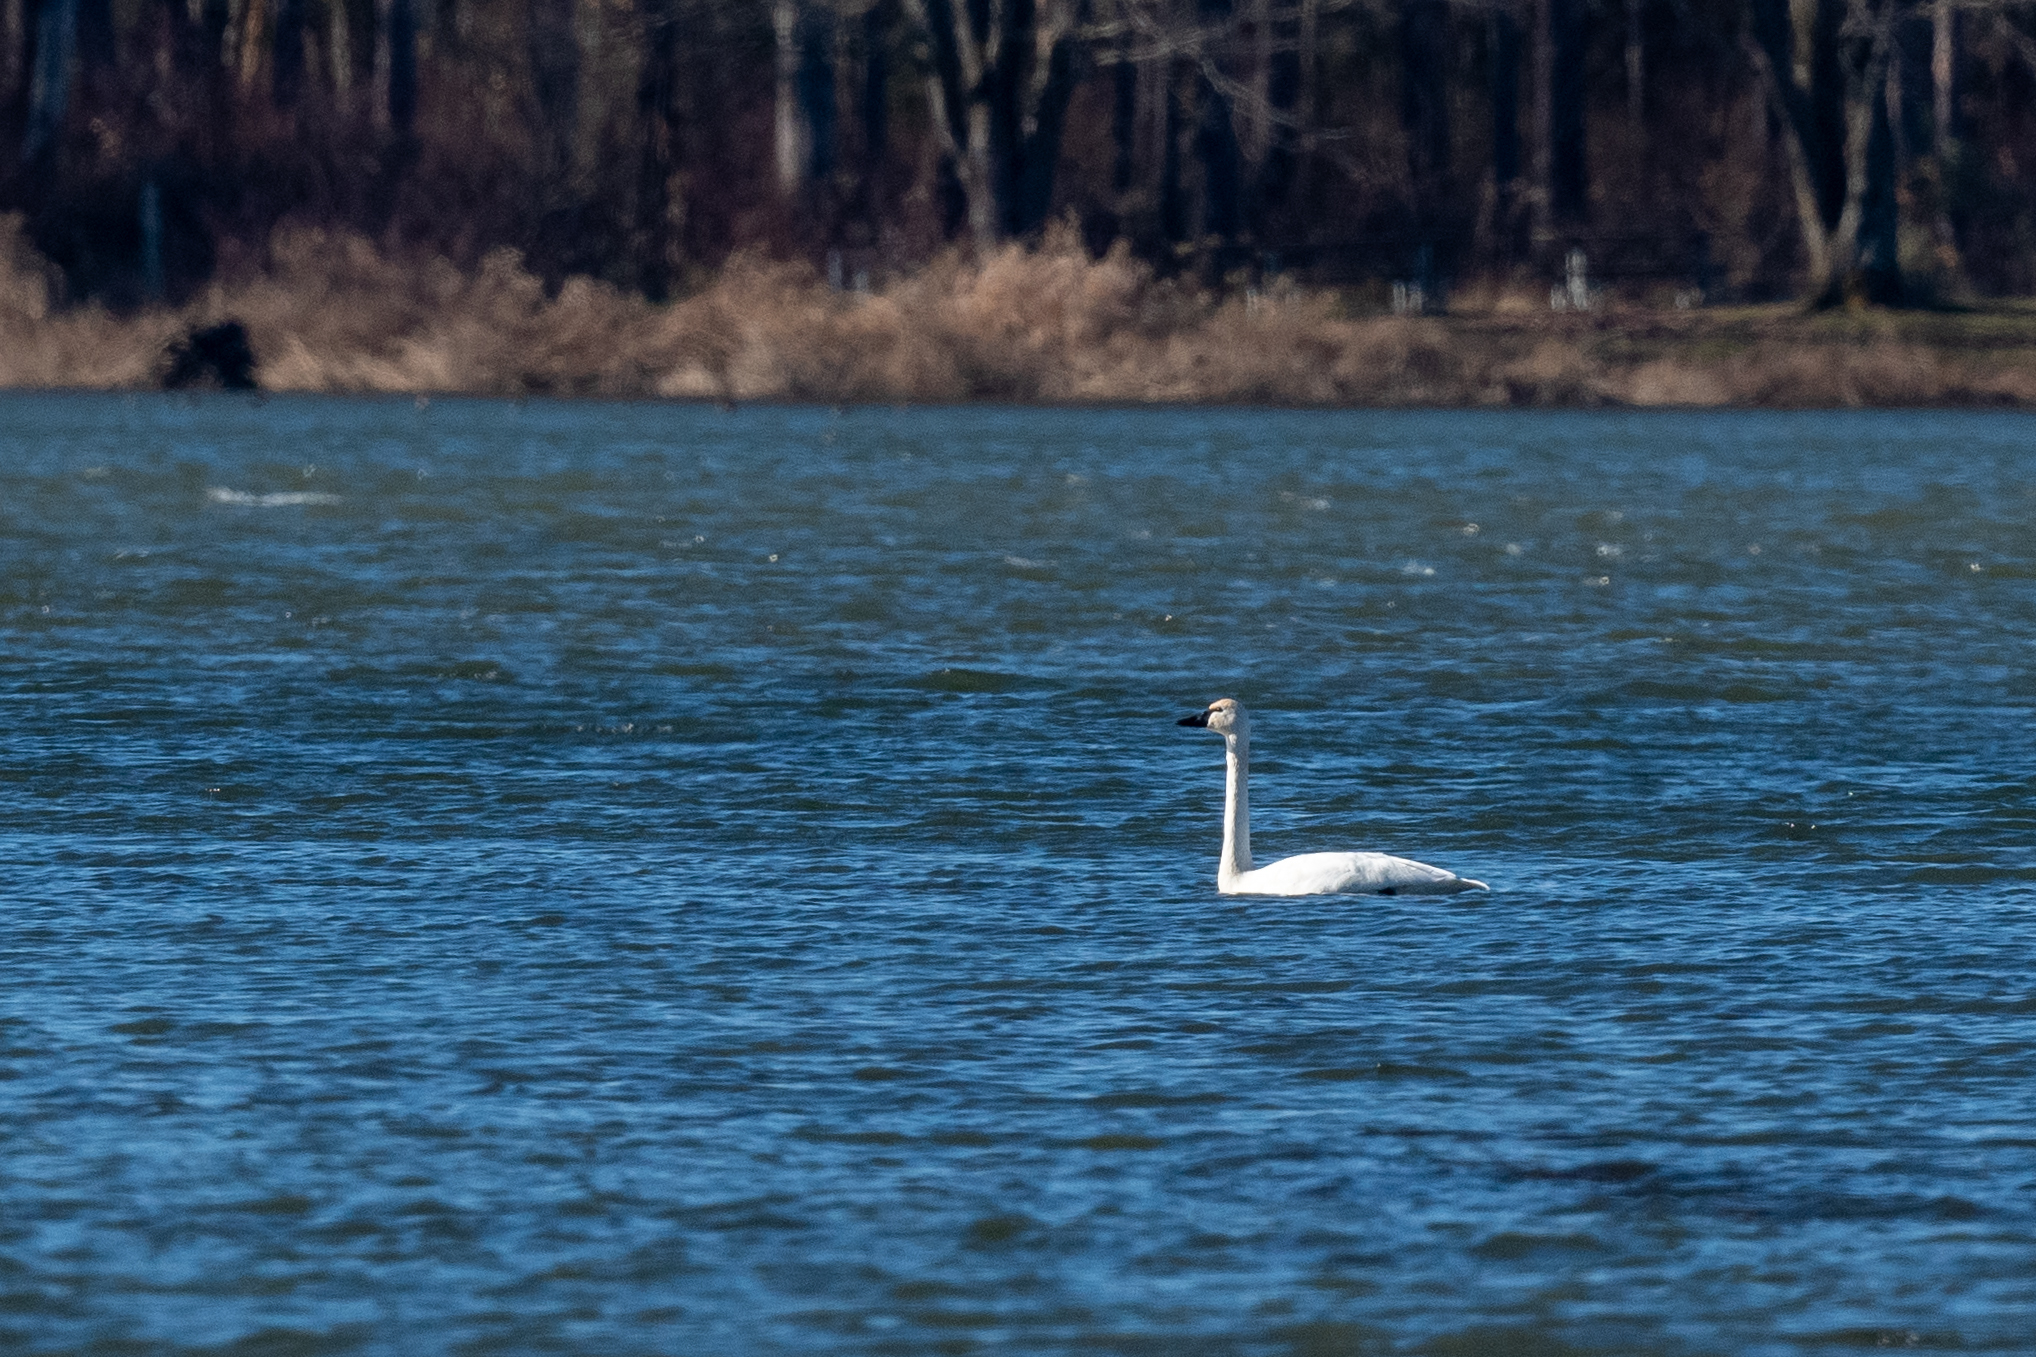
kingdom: Animalia
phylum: Chordata
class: Aves
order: Anseriformes
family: Anatidae
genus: Cygnus
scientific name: Cygnus columbianus
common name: Tundra swan
